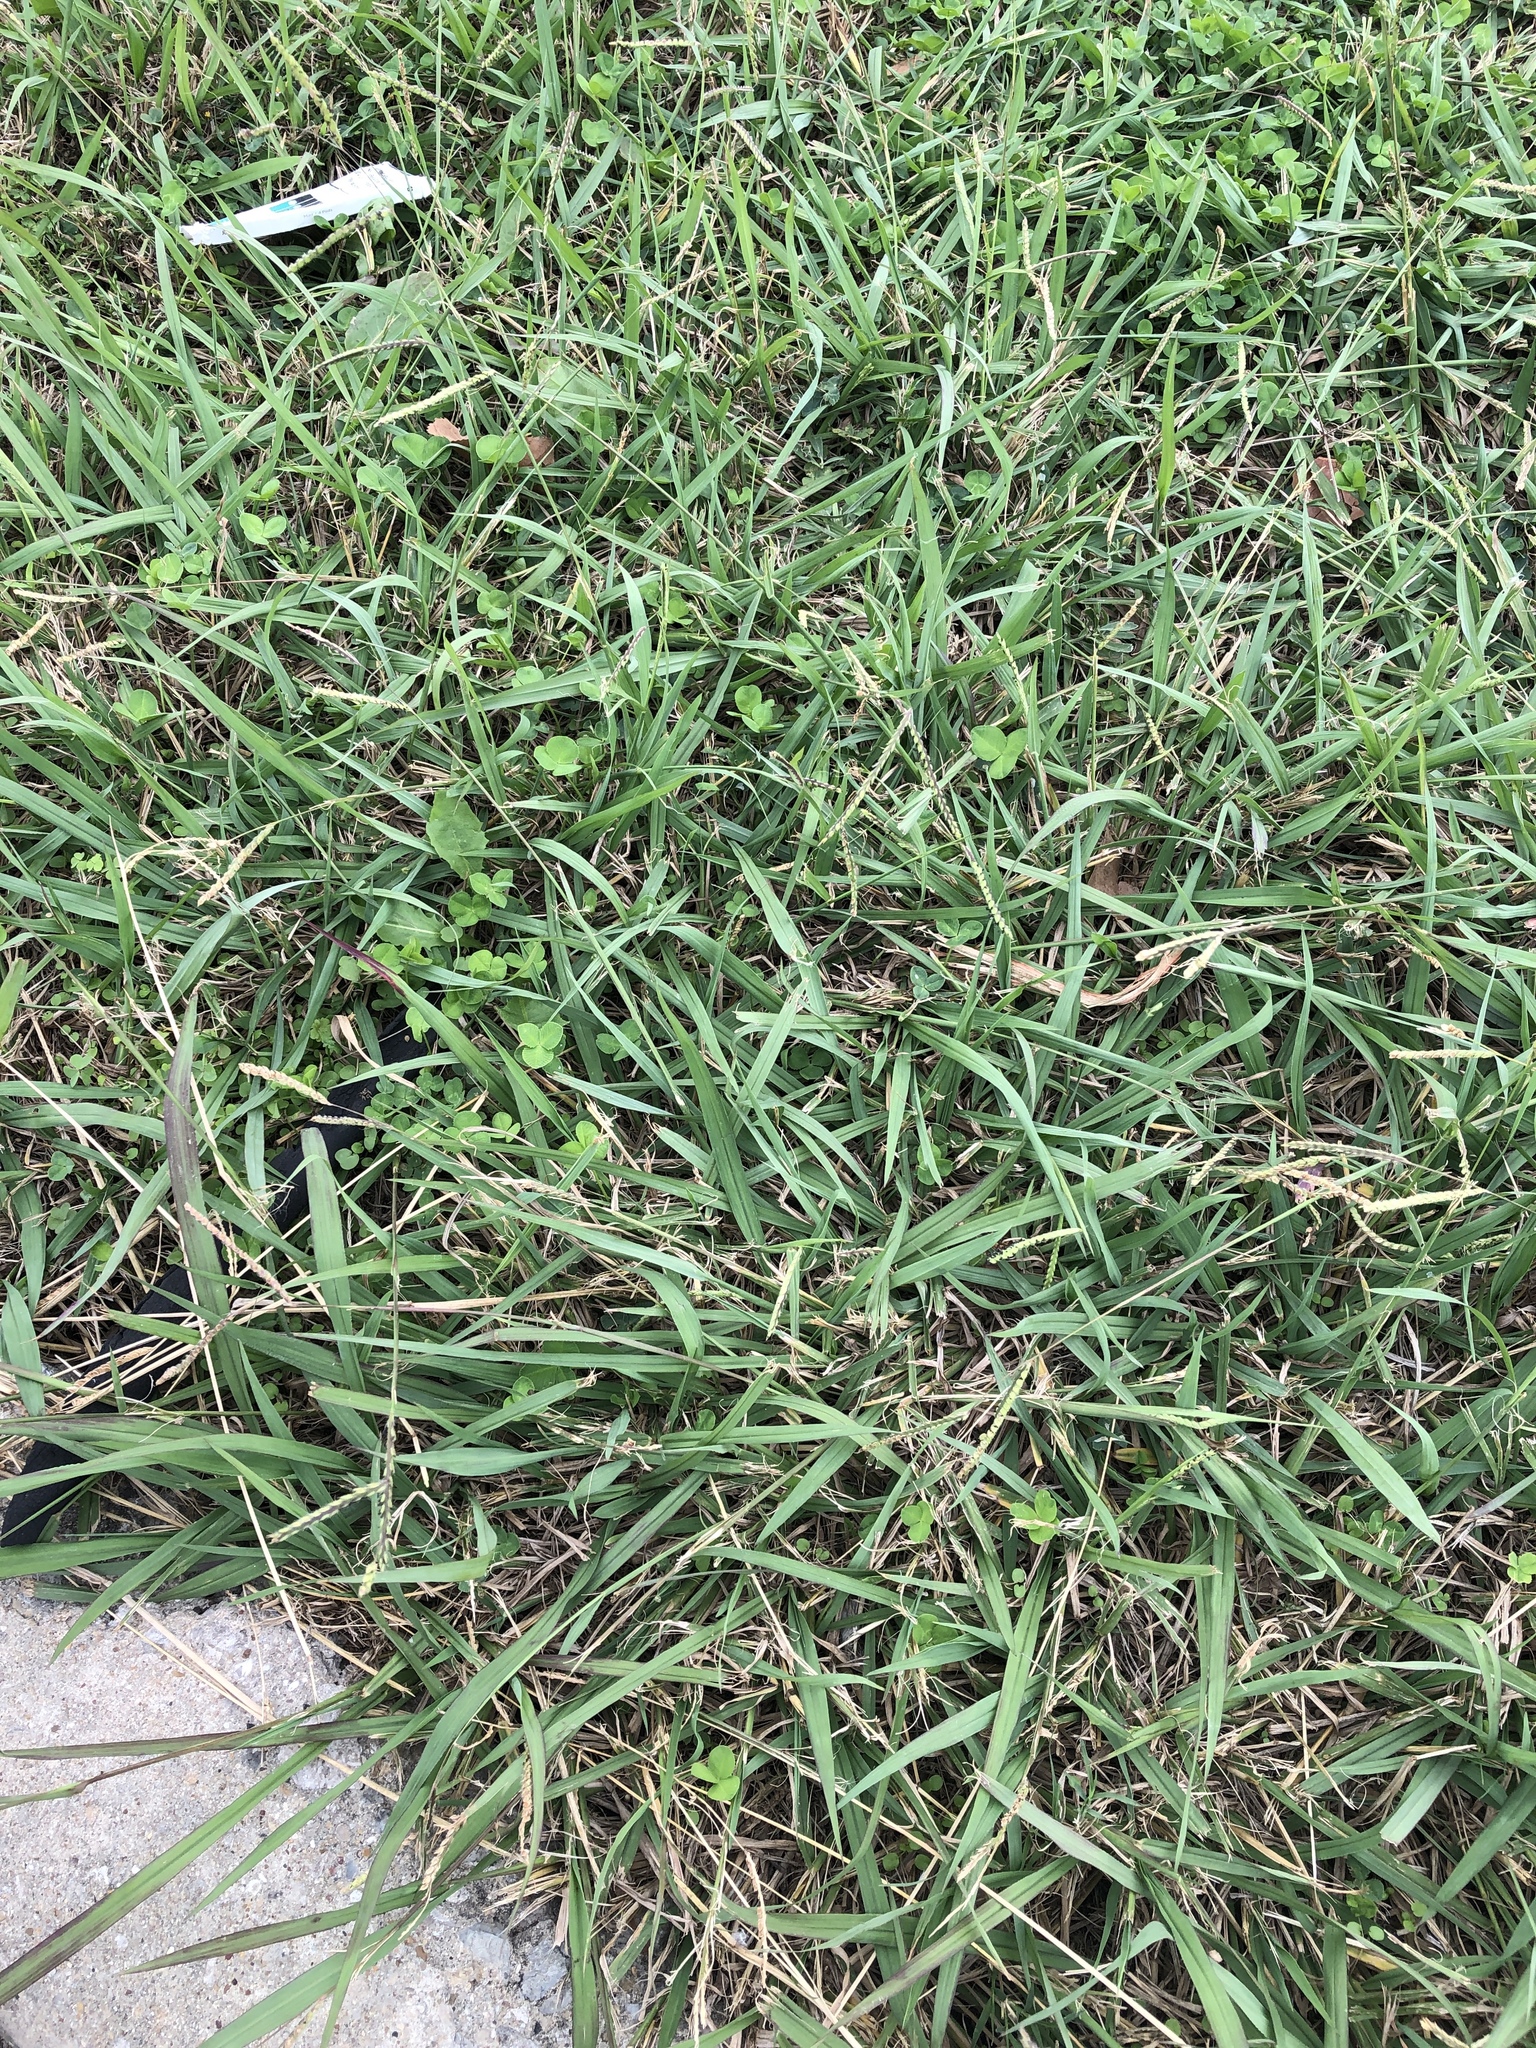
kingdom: Plantae
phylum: Tracheophyta
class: Liliopsida
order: Poales
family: Poaceae
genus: Paspalum
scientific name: Paspalum dilatatum
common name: Dallisgrass
